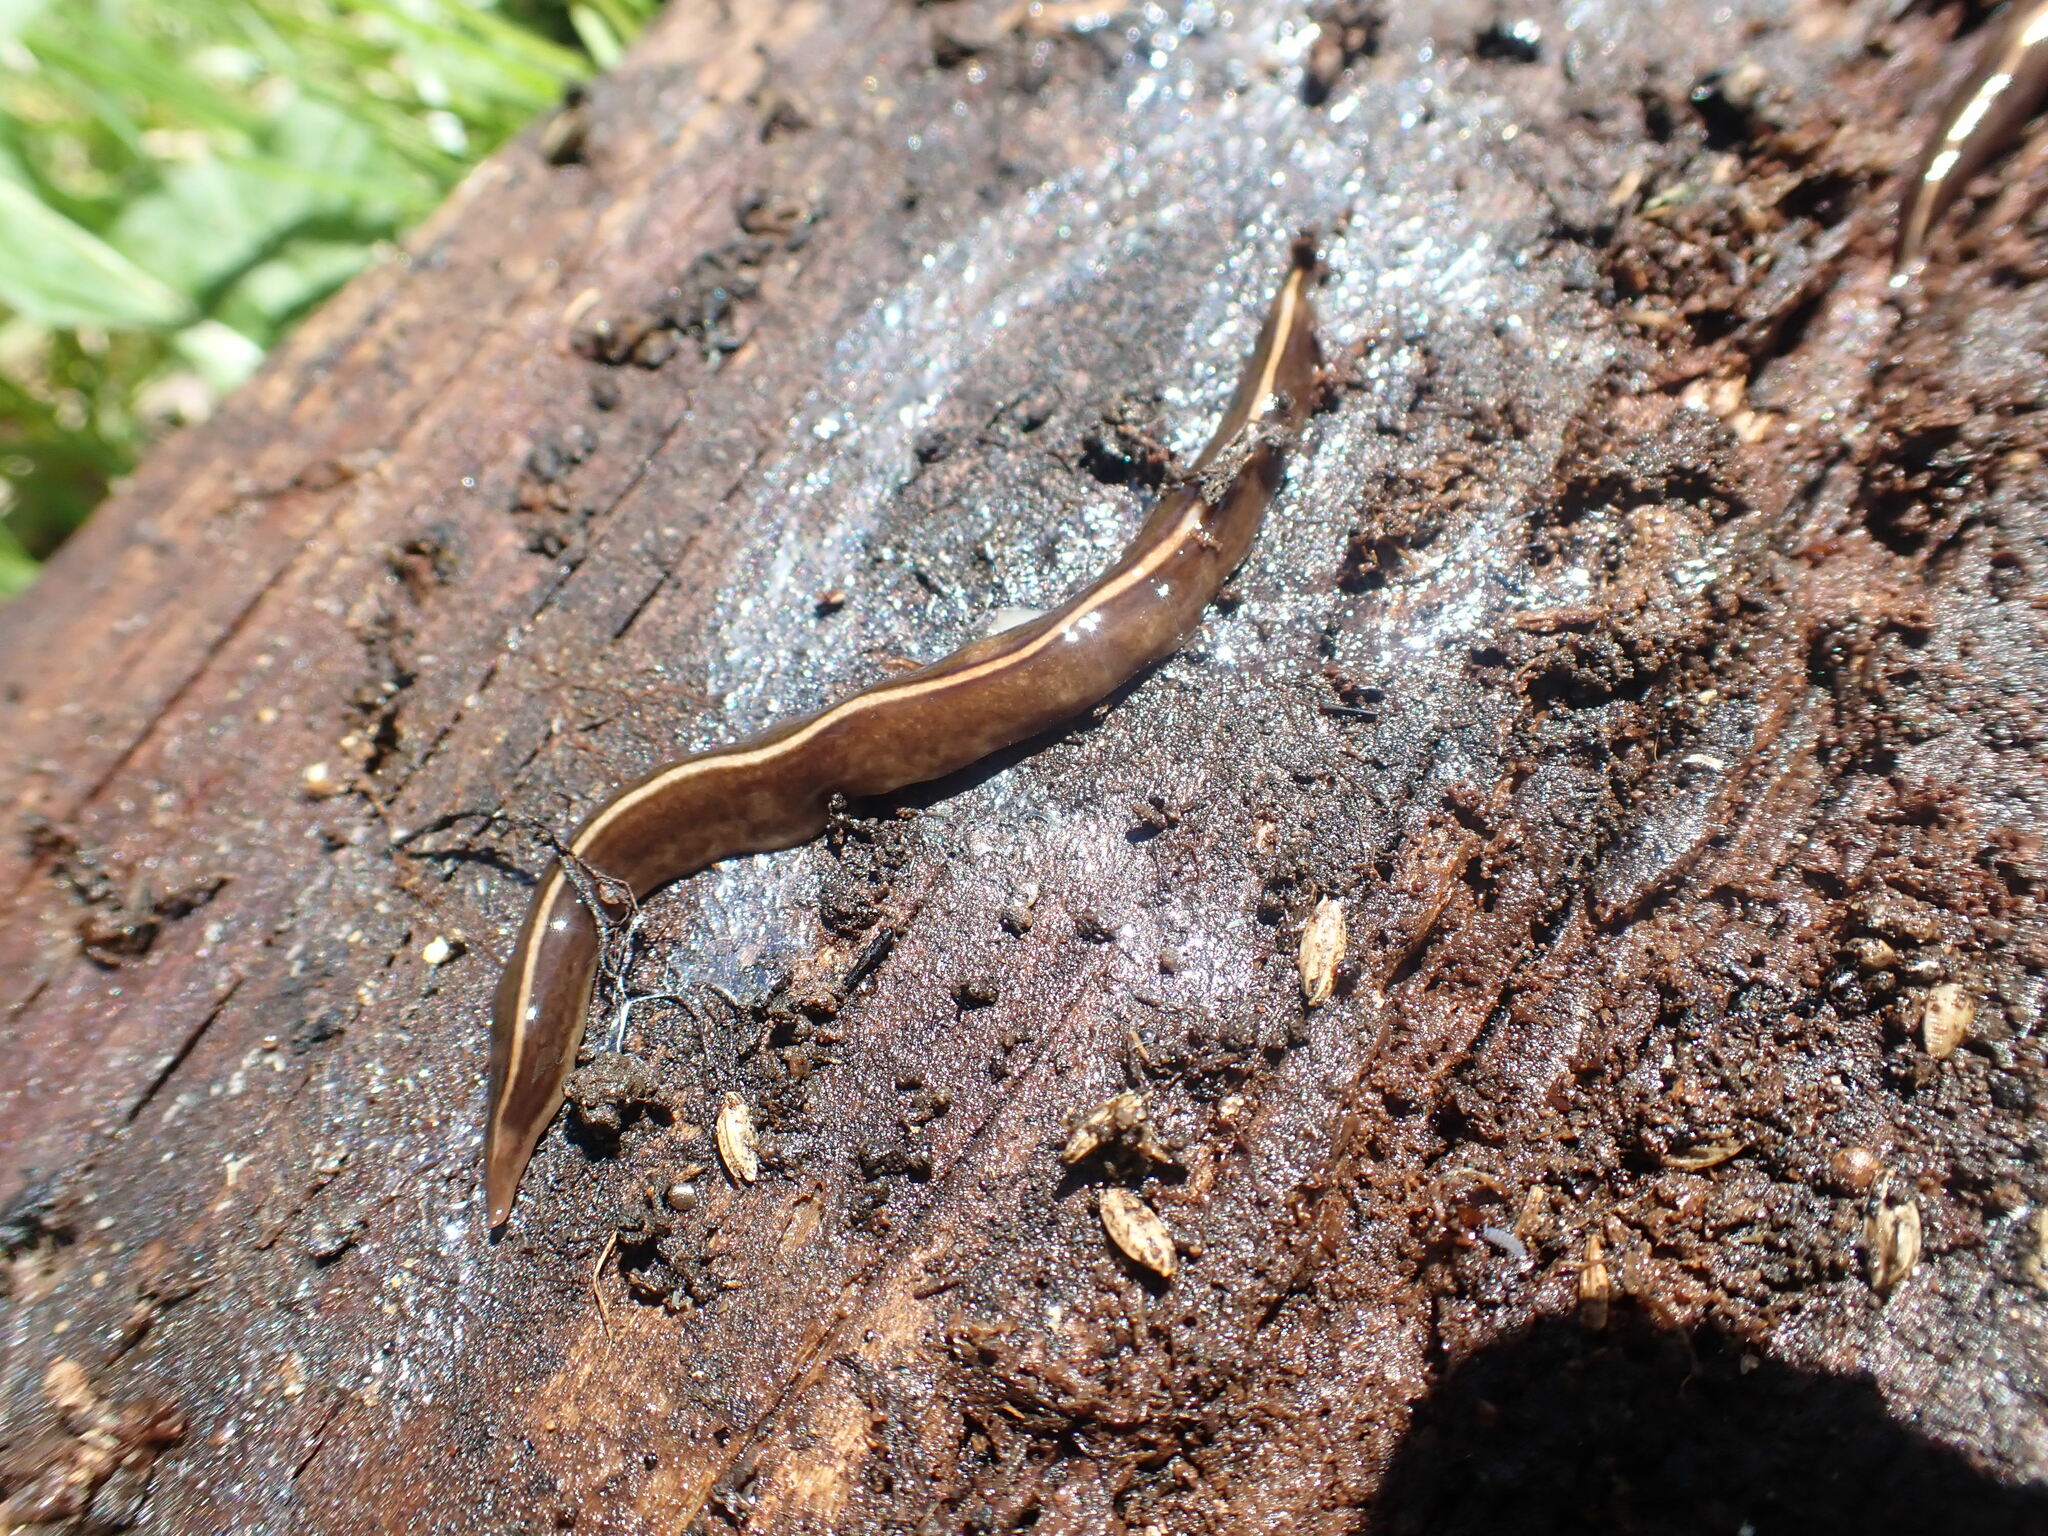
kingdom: Animalia
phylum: Platyhelminthes
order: Tricladida
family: Geoplanidae
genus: Newzealandia
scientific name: Newzealandia graffii
